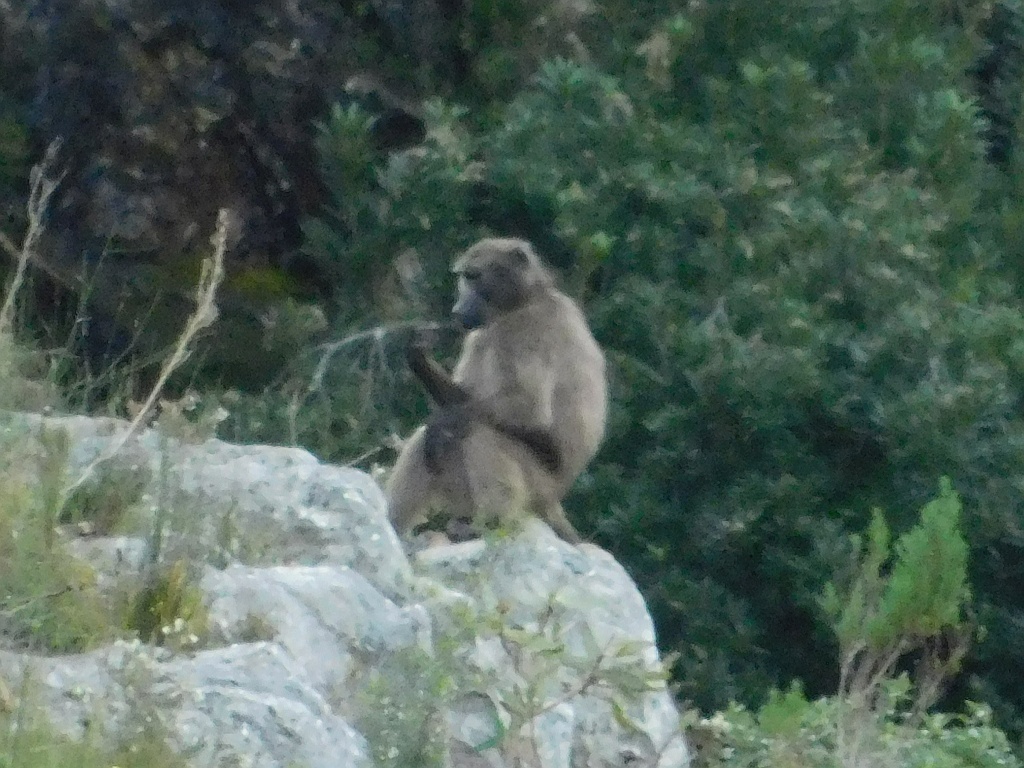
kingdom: Animalia
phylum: Chordata
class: Mammalia
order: Primates
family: Cercopithecidae
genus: Papio
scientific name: Papio ursinus
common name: Chacma baboon
